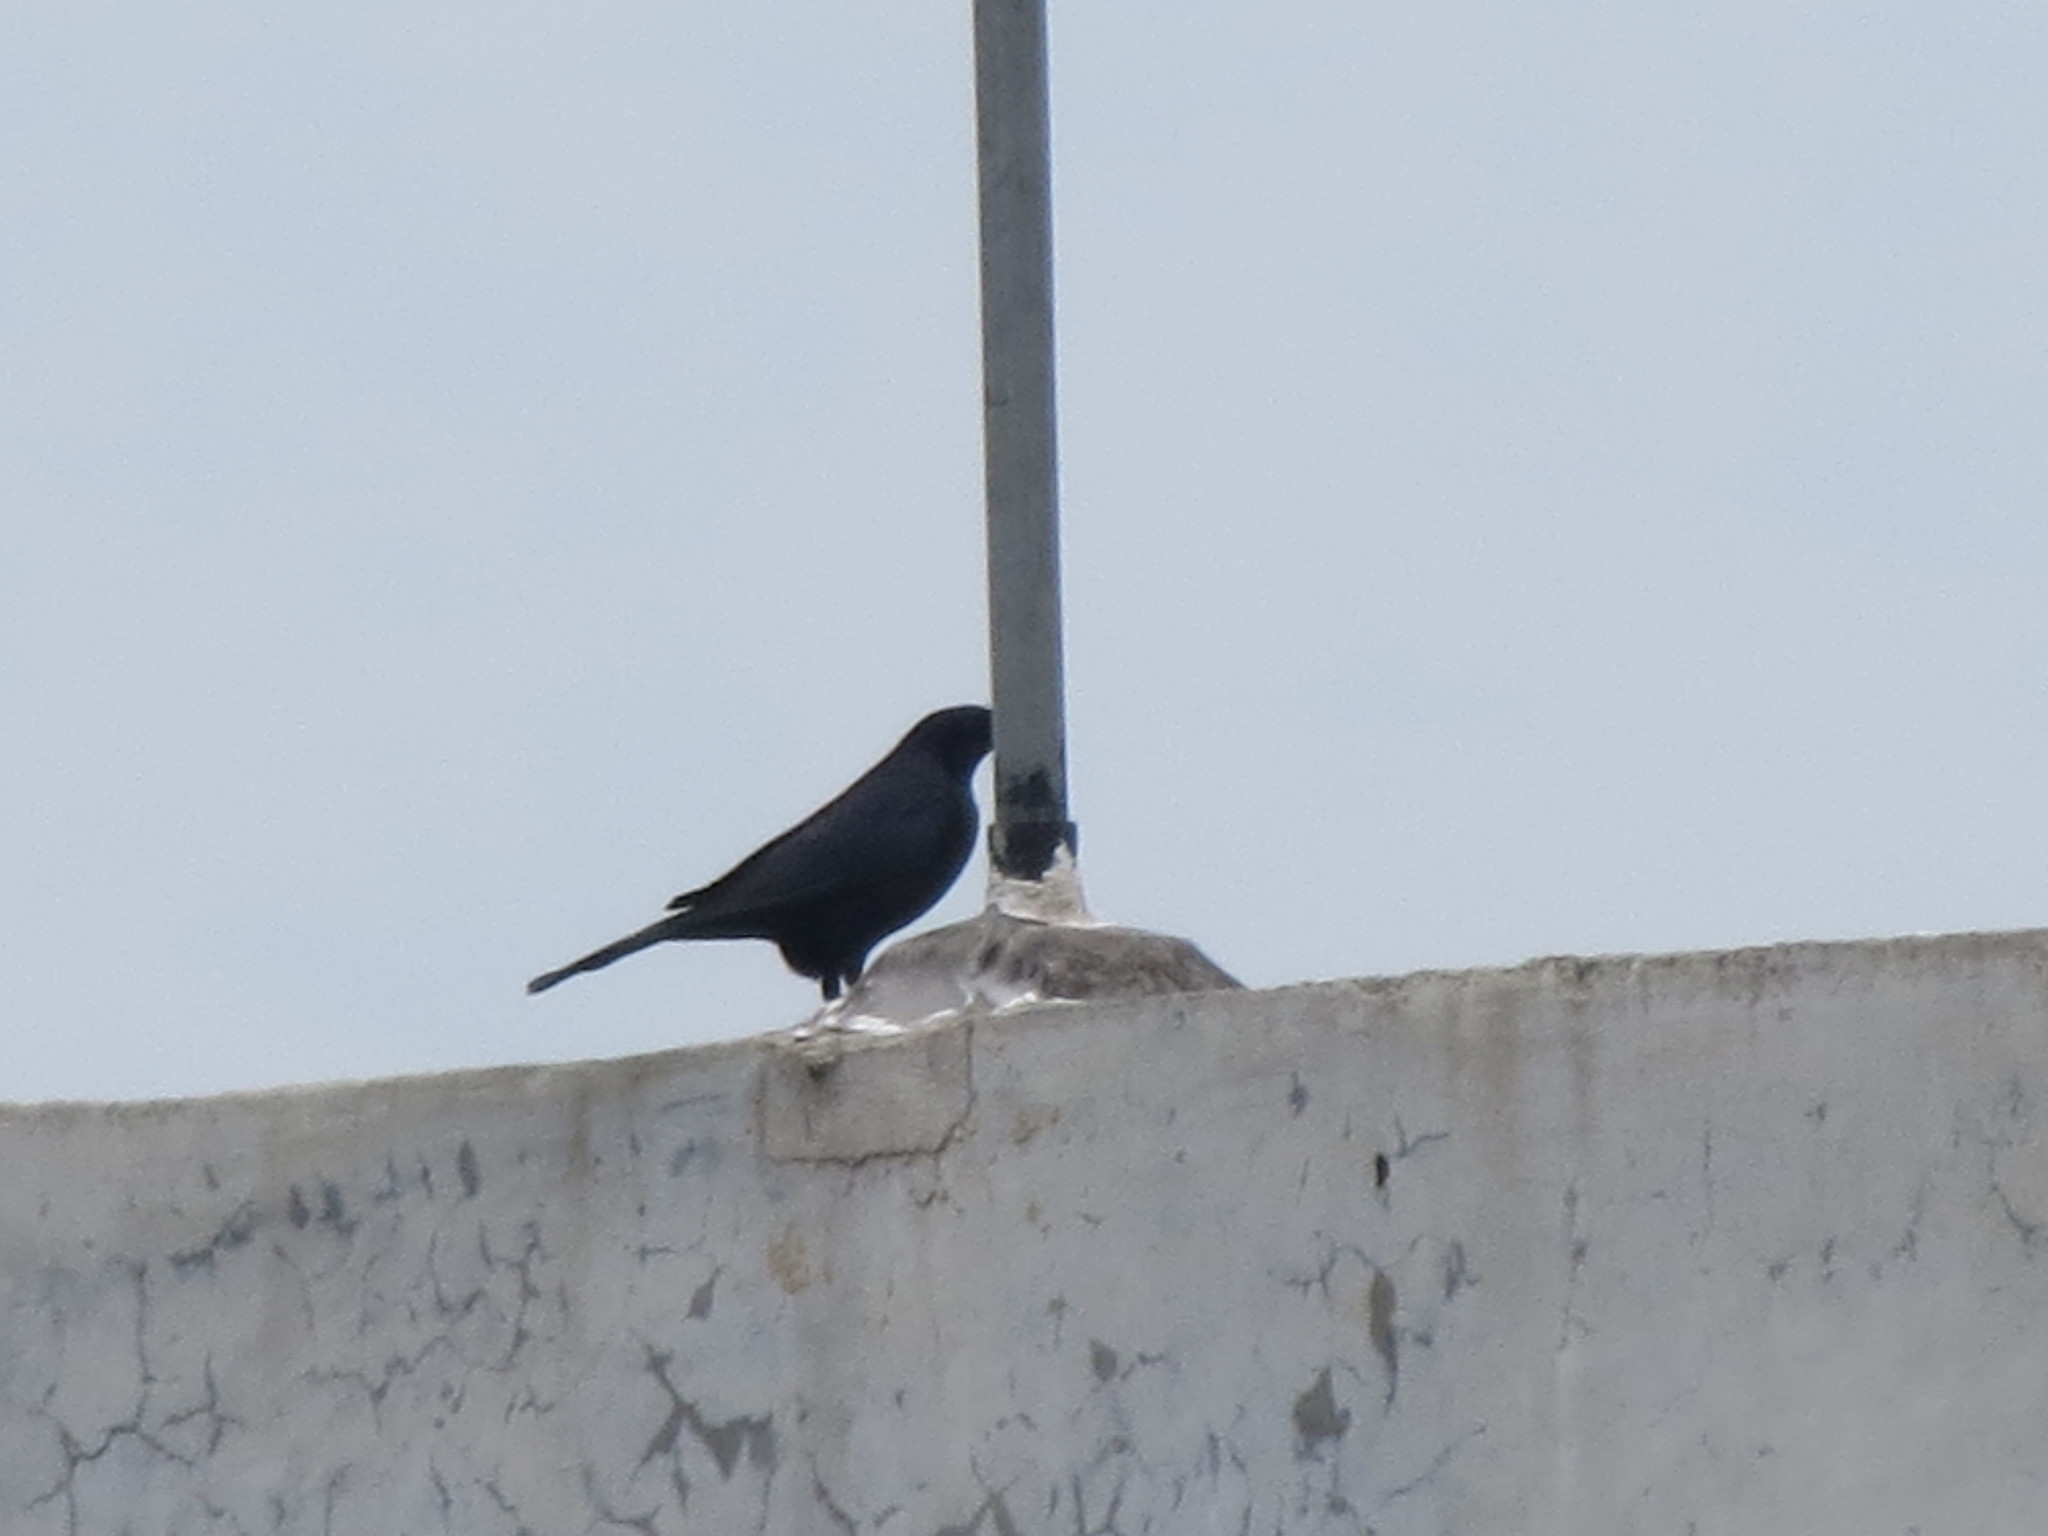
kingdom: Animalia
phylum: Chordata
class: Aves
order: Passeriformes
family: Icteridae
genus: Molothrus
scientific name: Molothrus oryzivorus
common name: Giant cowbird
